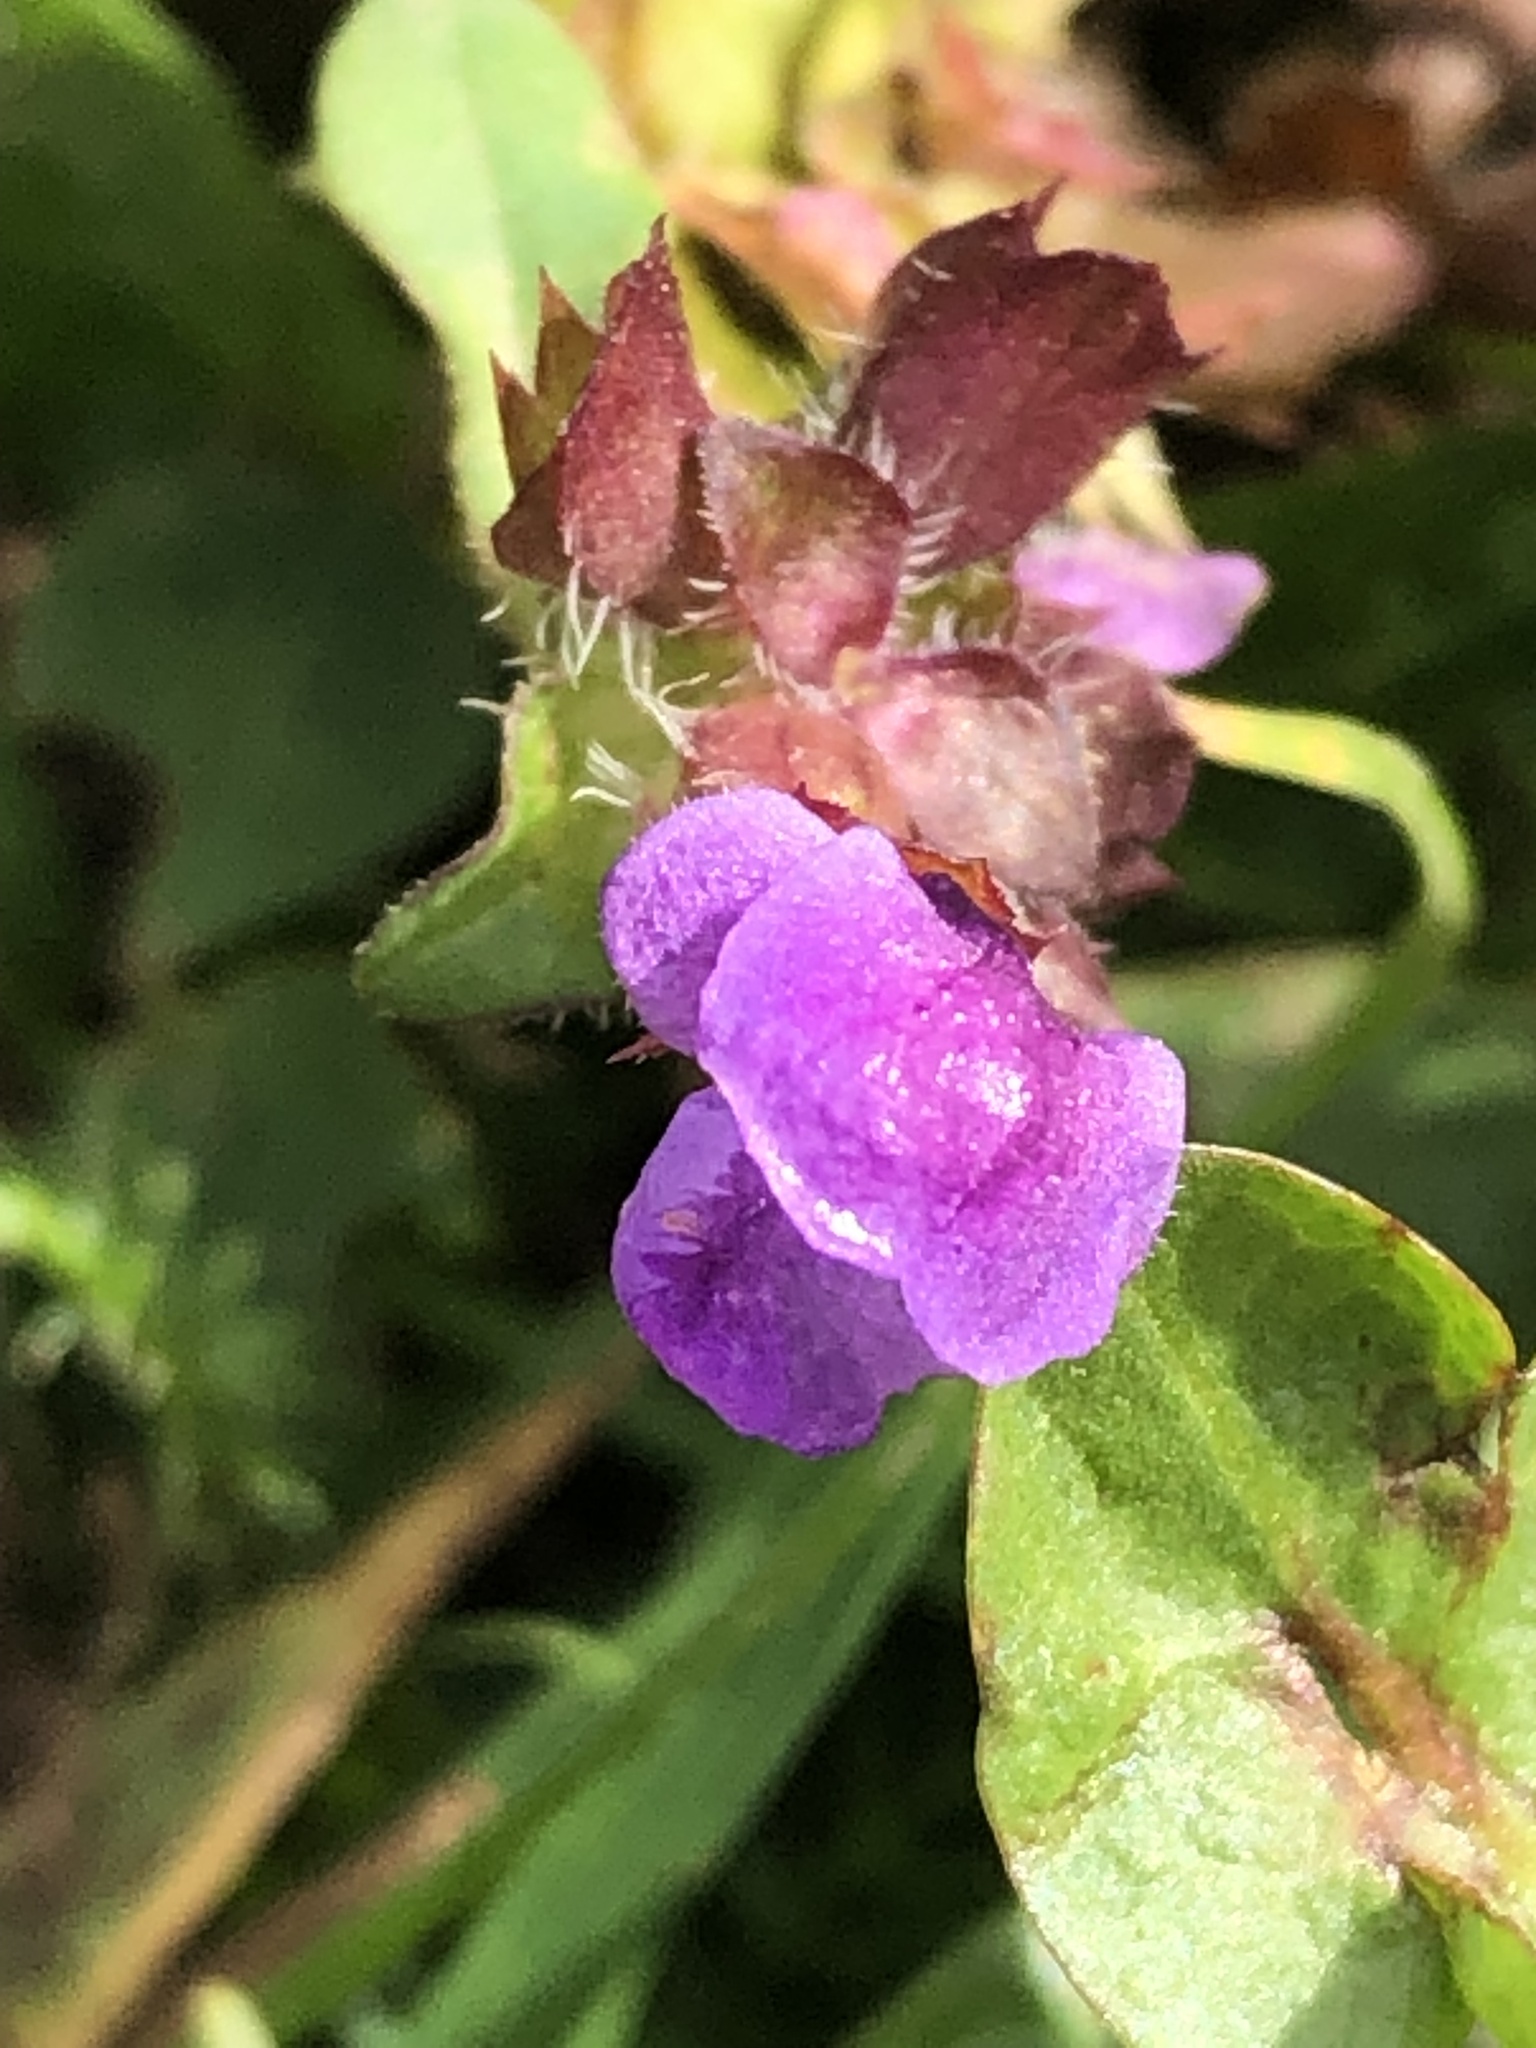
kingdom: Plantae
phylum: Tracheophyta
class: Magnoliopsida
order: Lamiales
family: Lamiaceae
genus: Prunella
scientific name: Prunella vulgaris
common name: Heal-all
